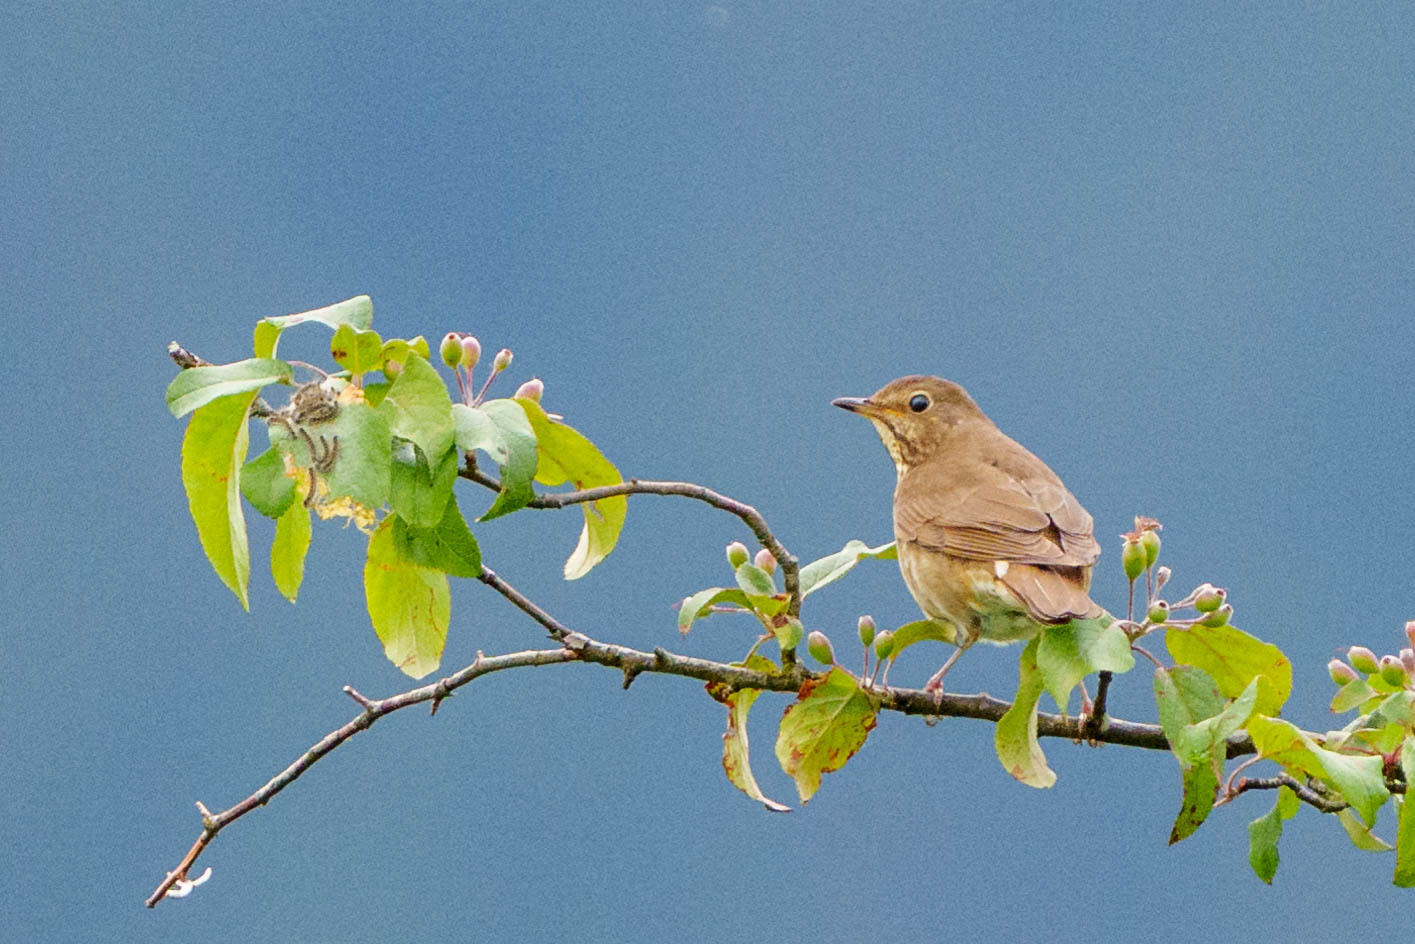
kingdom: Animalia
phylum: Chordata
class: Aves
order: Passeriformes
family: Turdidae
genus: Catharus
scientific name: Catharus ustulatus
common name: Swainson's thrush
